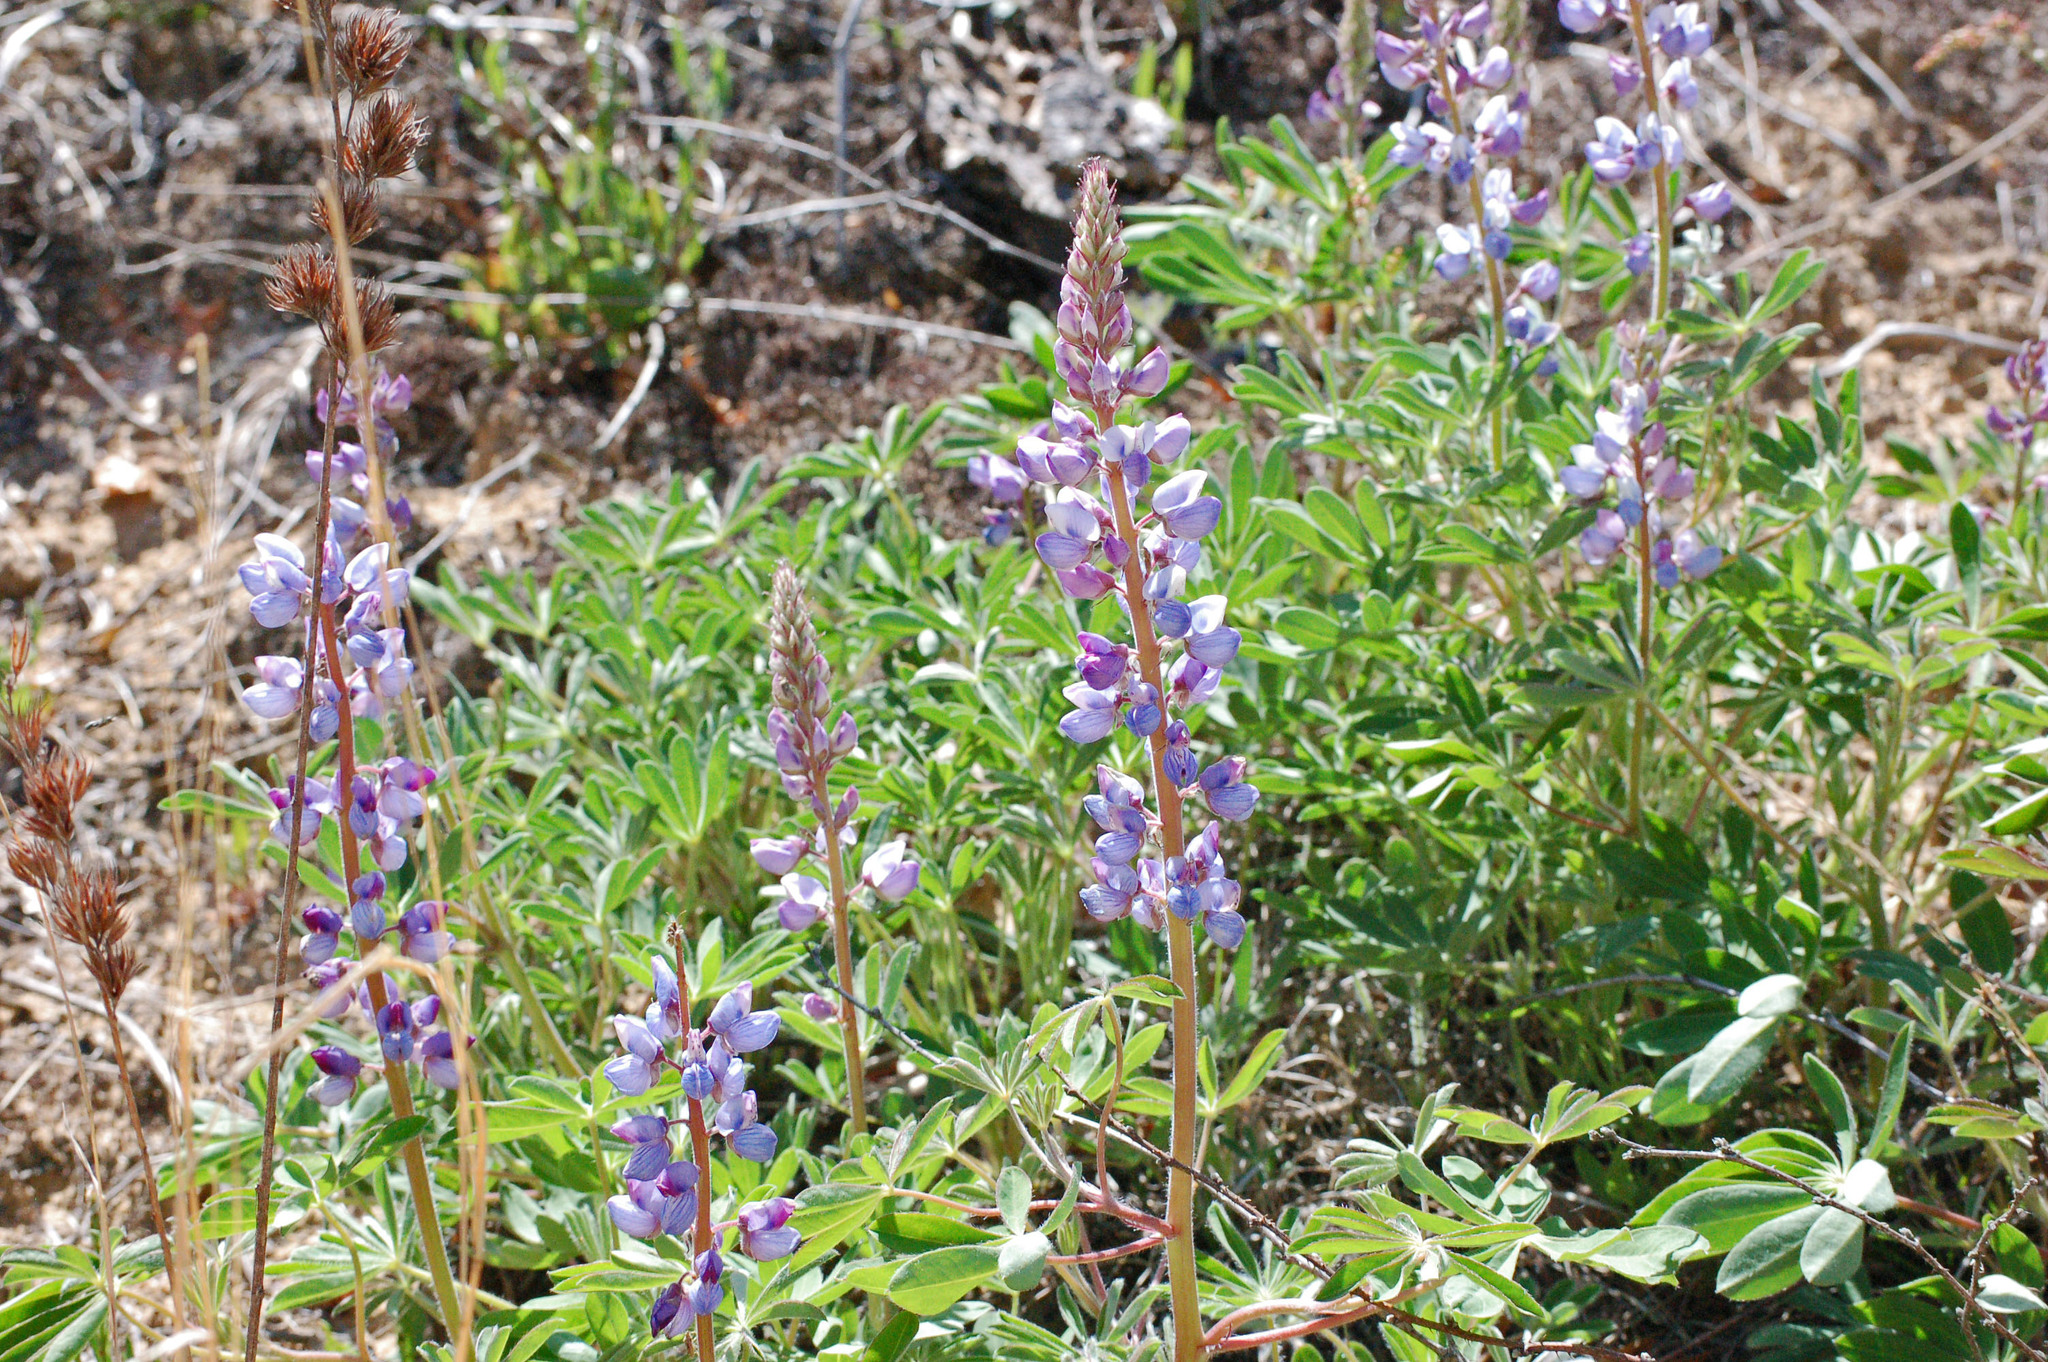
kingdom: Plantae
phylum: Tracheophyta
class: Magnoliopsida
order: Fabales
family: Fabaceae
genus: Lupinus
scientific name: Lupinus perennis
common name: Sundial lupine
